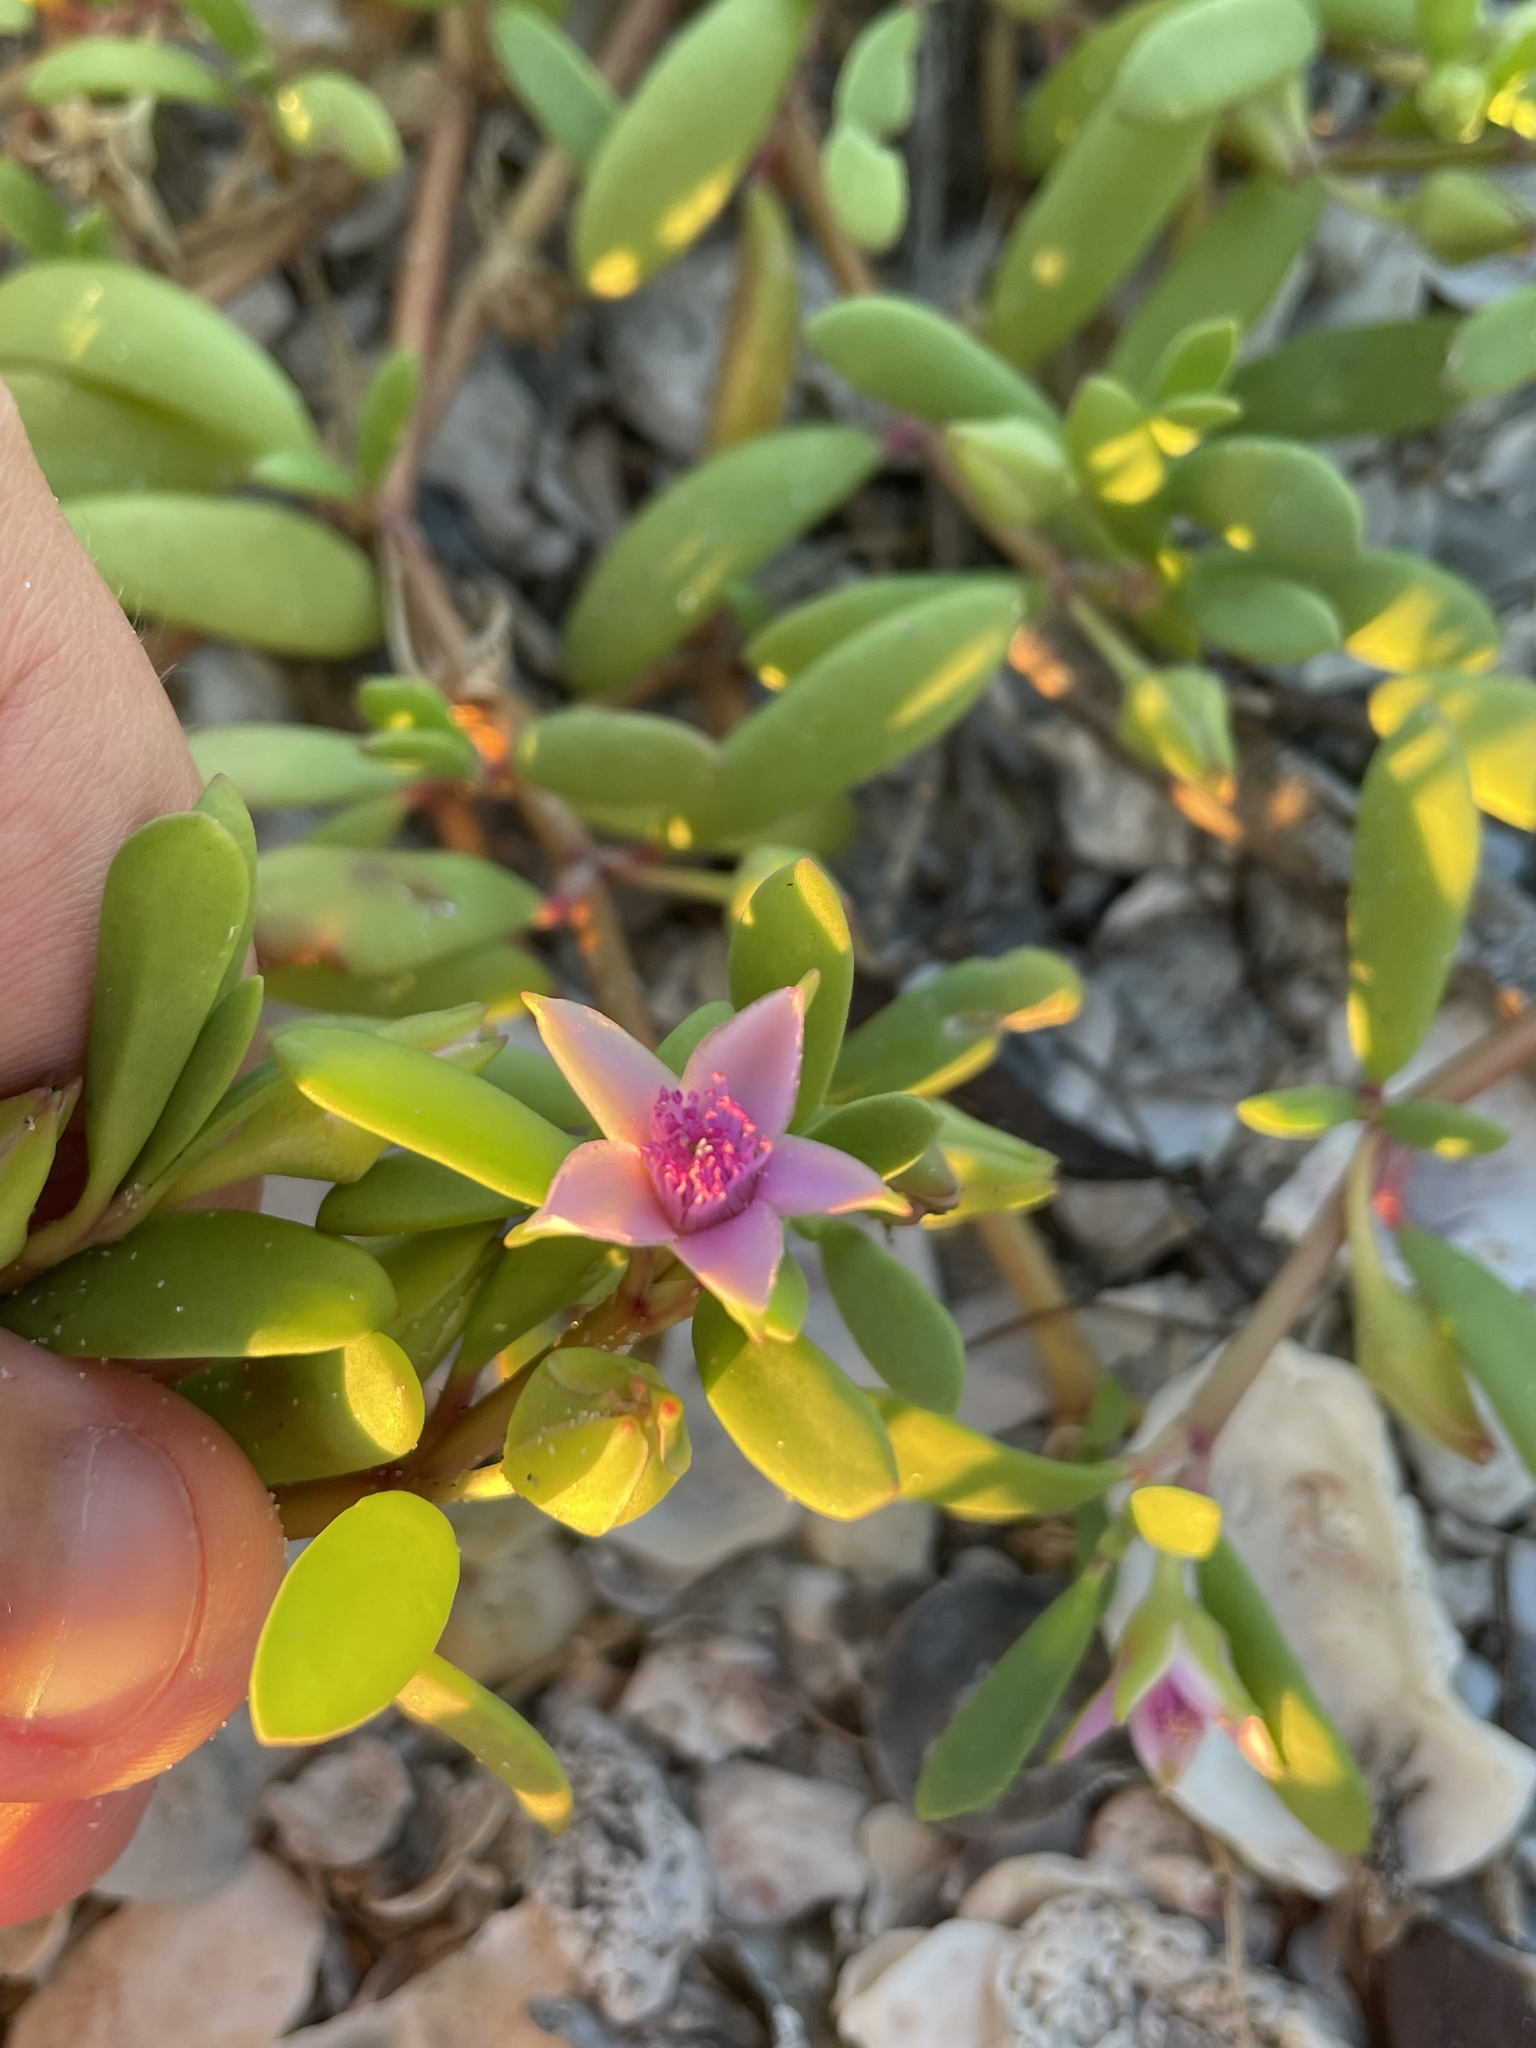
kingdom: Plantae
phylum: Tracheophyta
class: Magnoliopsida
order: Caryophyllales
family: Aizoaceae
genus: Sesuvium
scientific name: Sesuvium portulacastrum
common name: Sea-purslane
